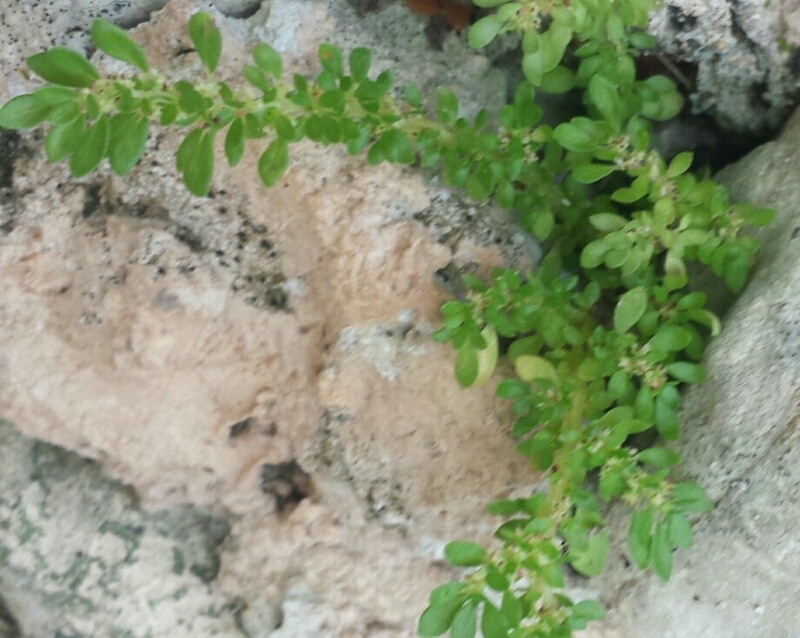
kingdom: Plantae
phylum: Tracheophyta
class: Magnoliopsida
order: Rosales
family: Urticaceae
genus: Pilea
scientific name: Pilea microphylla
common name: Artillery-plant
